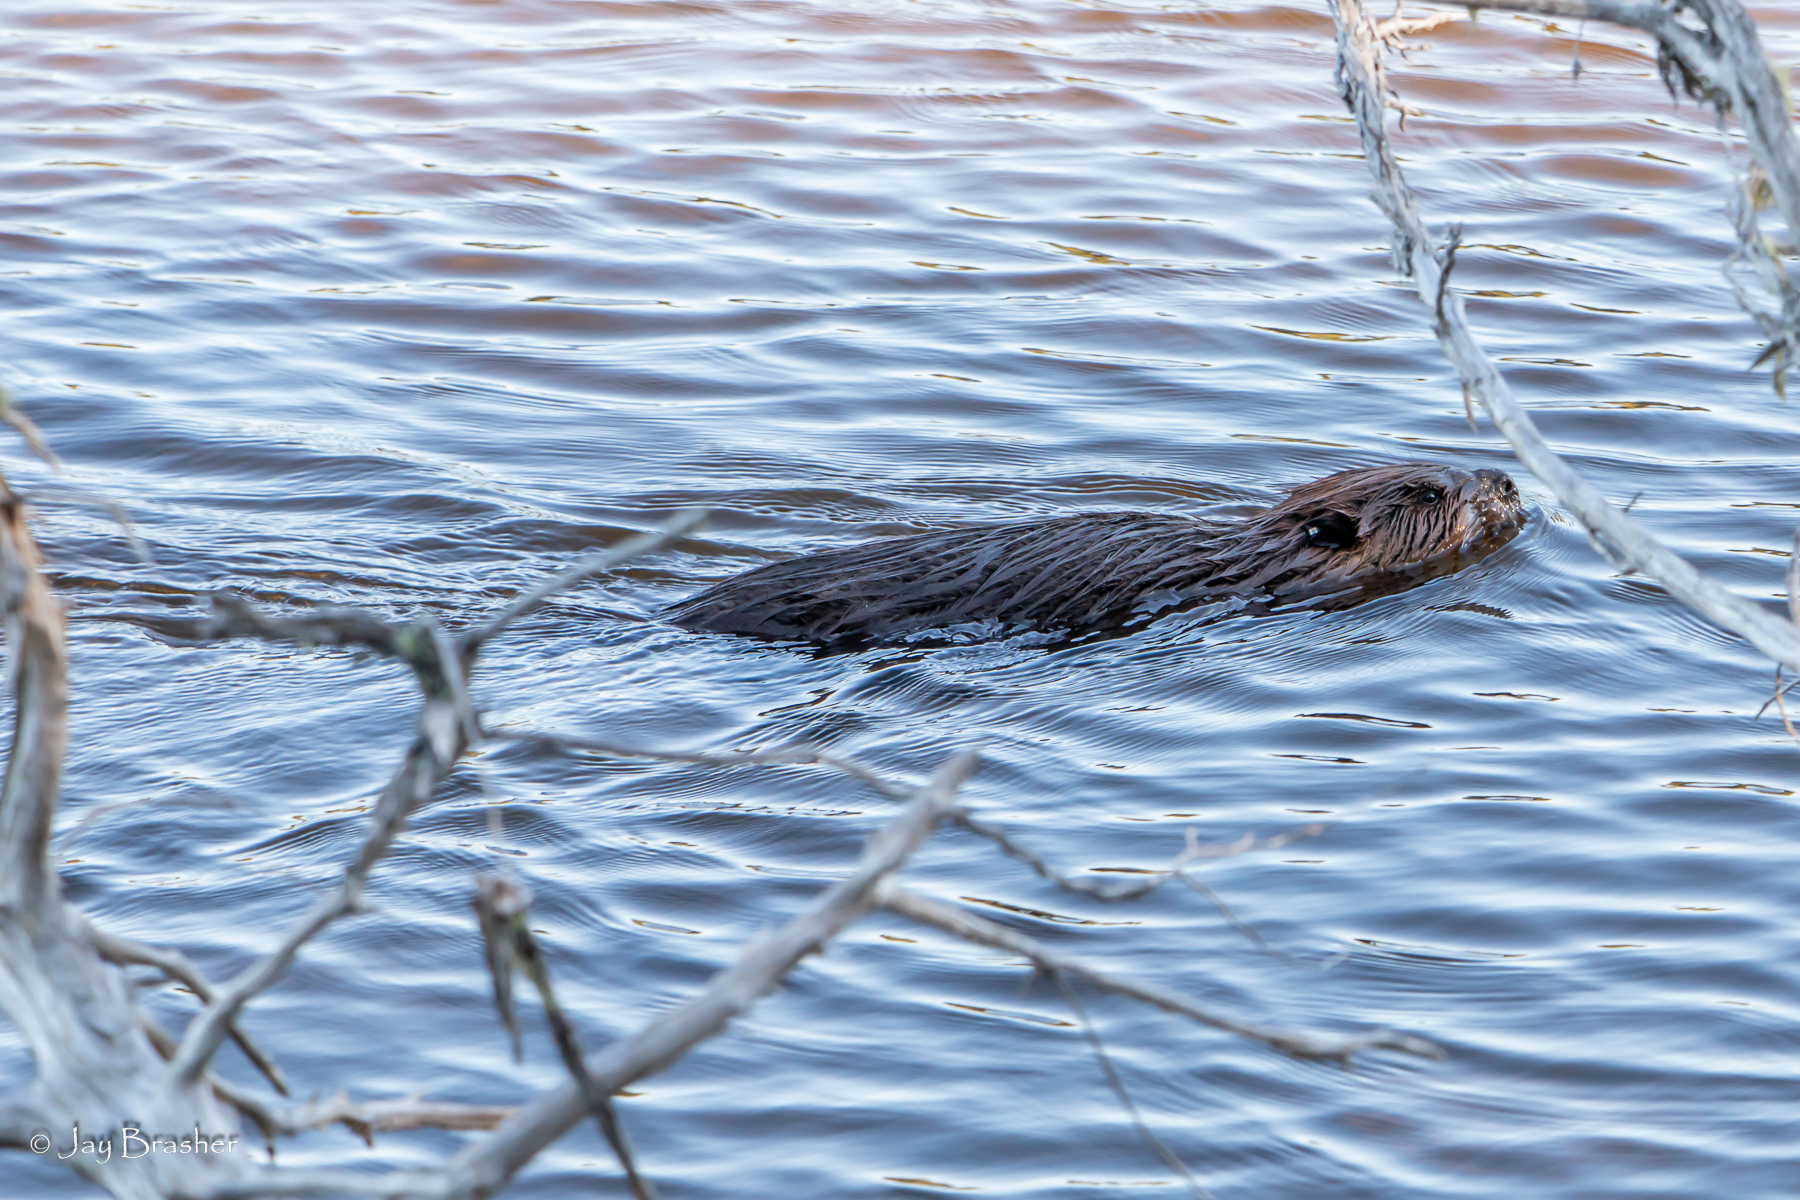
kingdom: Animalia
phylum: Chordata
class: Mammalia
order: Rodentia
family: Castoridae
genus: Castor
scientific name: Castor canadensis
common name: American beaver
